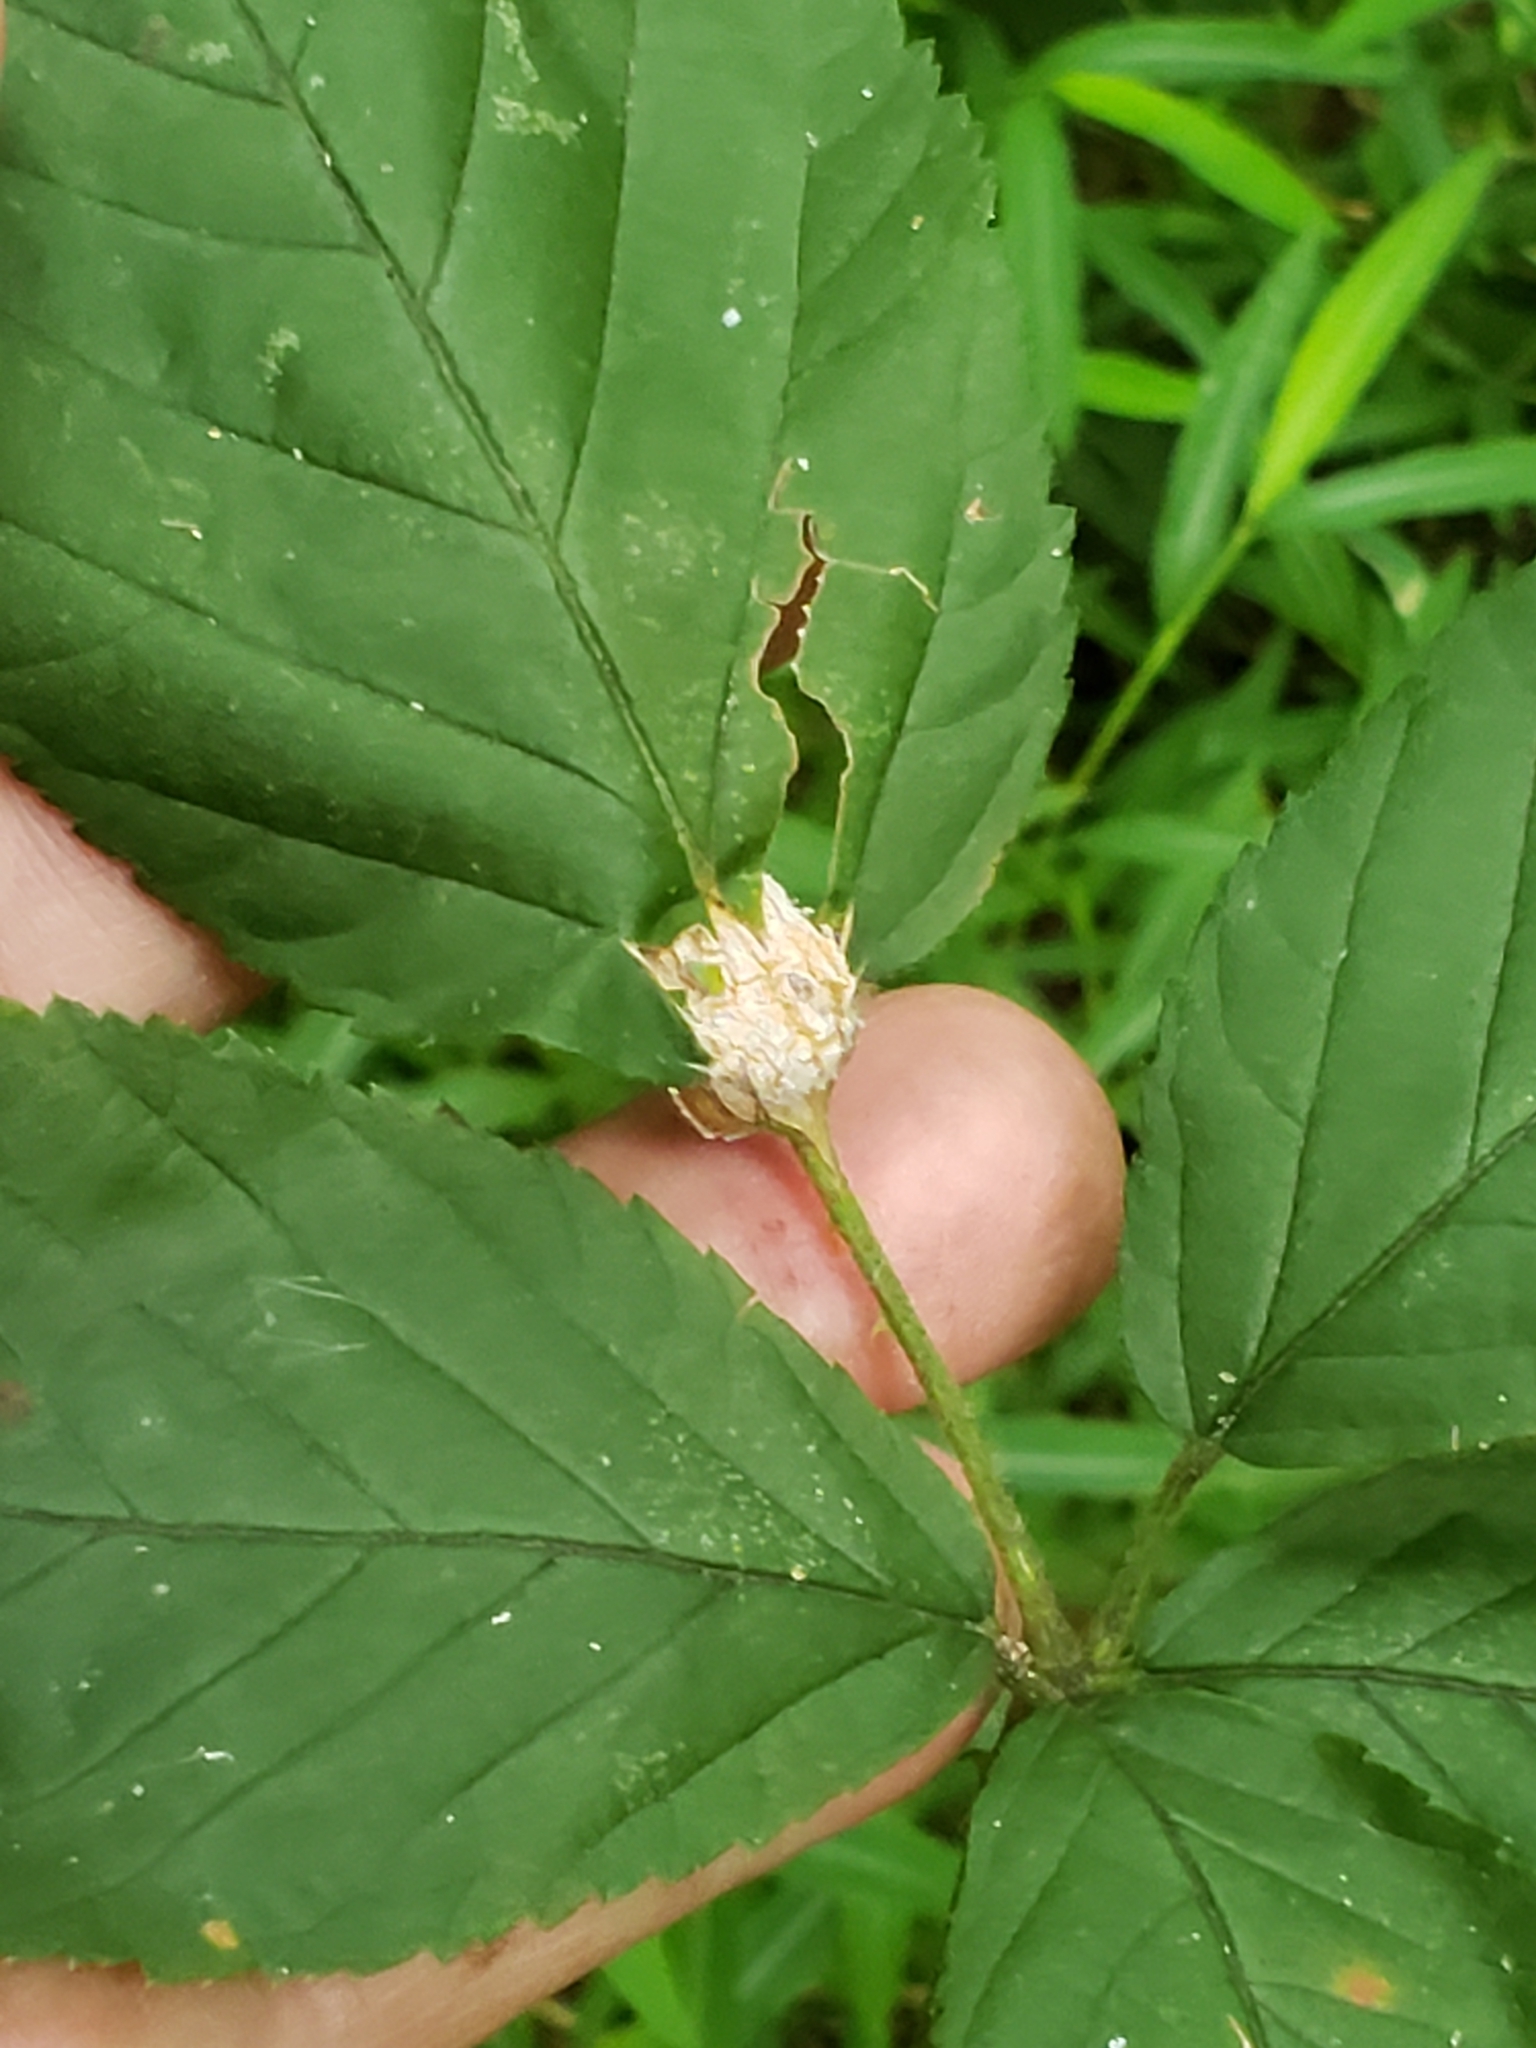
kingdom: Animalia
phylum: Arthropoda
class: Insecta
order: Diptera
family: Cecidomyiidae
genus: Neolasioptera
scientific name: Neolasioptera farinosa
